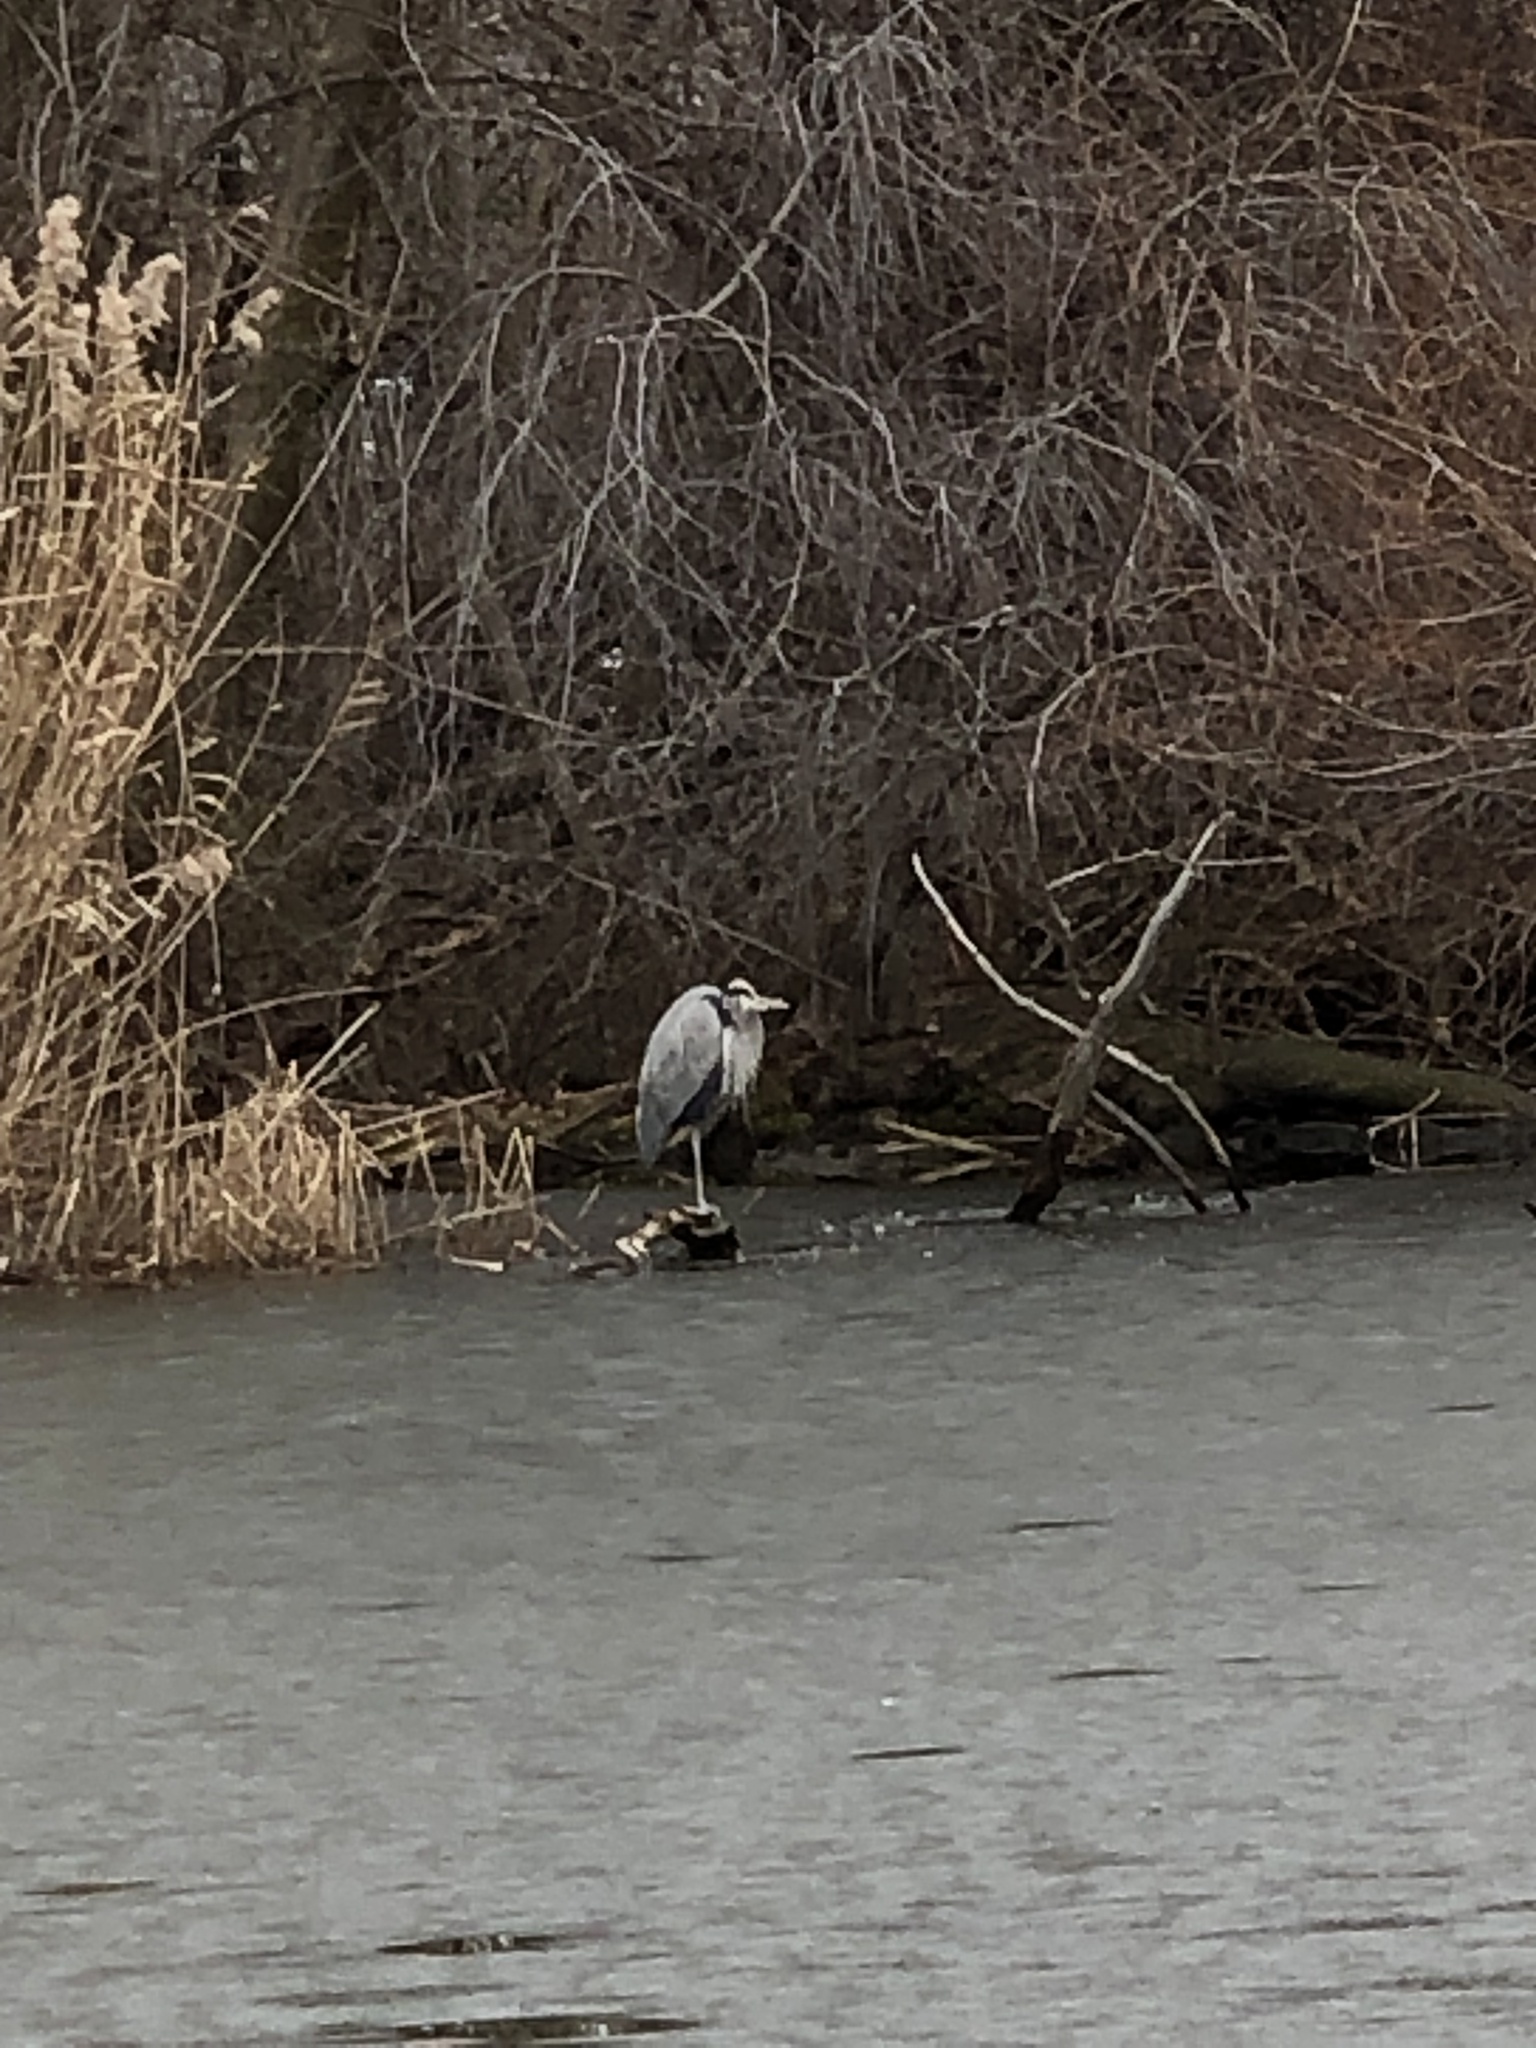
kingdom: Animalia
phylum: Chordata
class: Aves
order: Pelecaniformes
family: Ardeidae
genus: Ardea
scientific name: Ardea herodias
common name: Great blue heron
